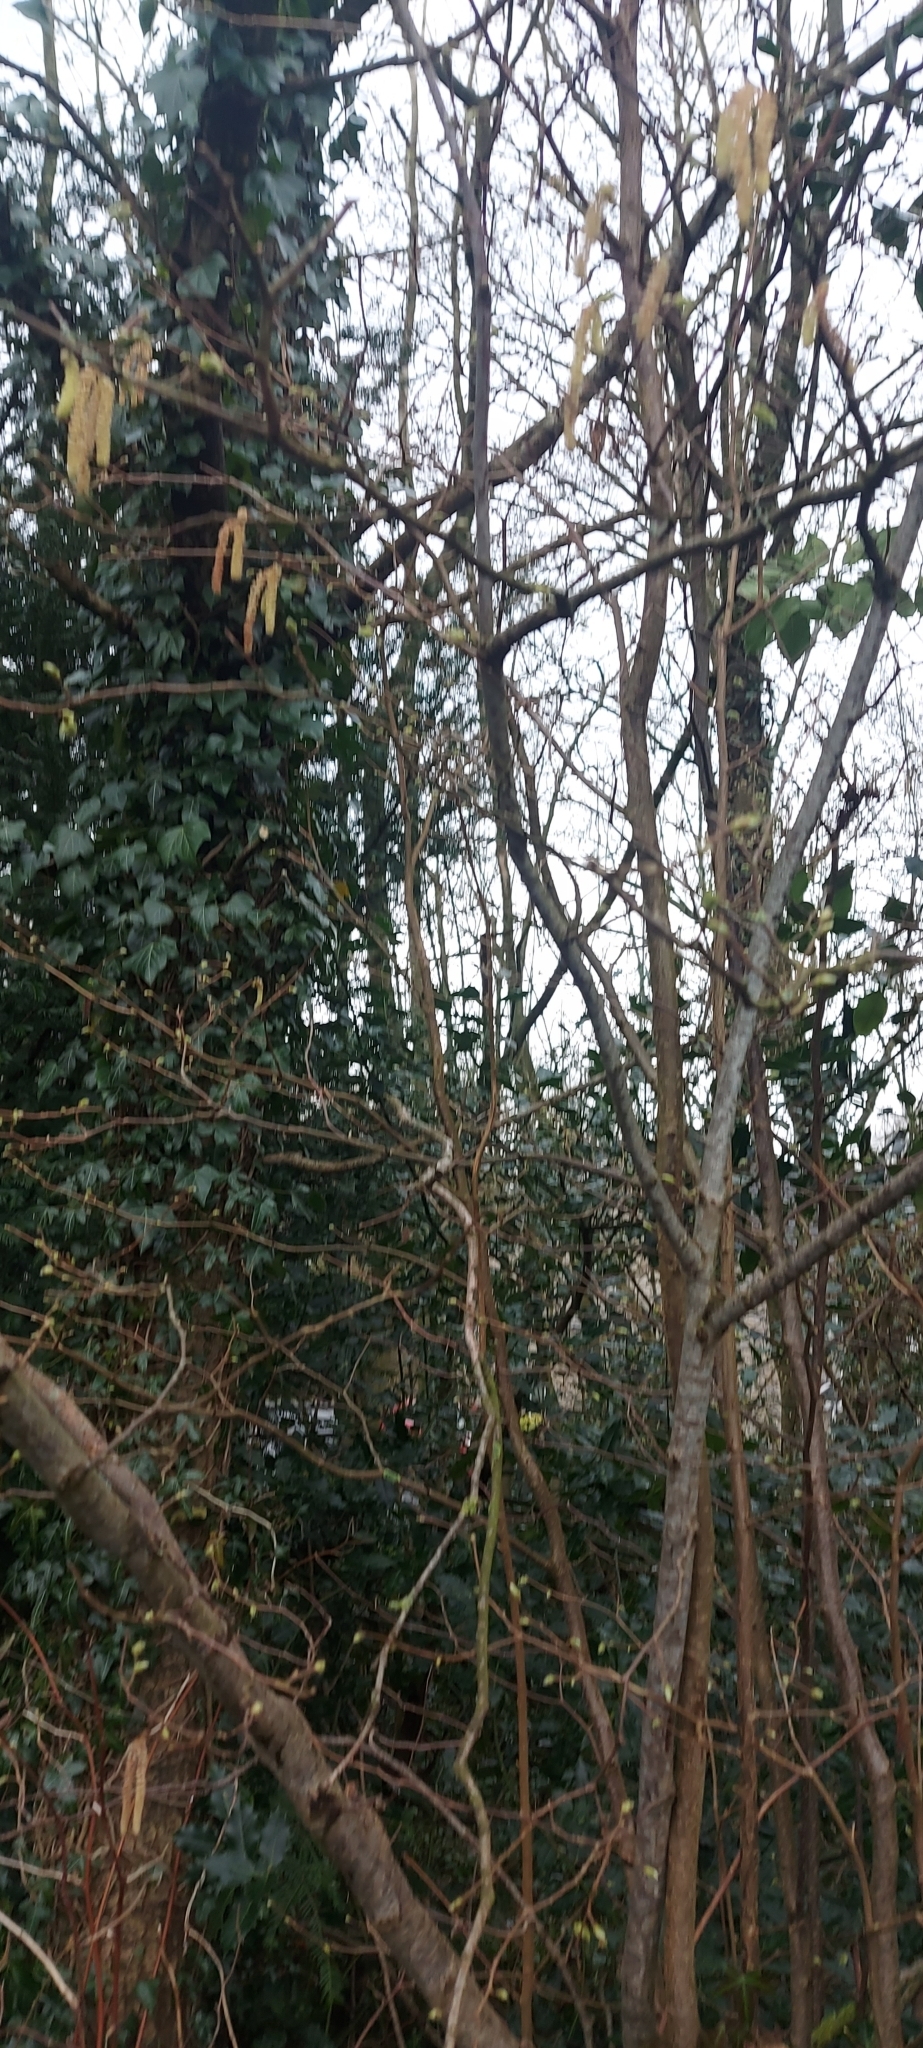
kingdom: Plantae
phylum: Tracheophyta
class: Magnoliopsida
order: Fagales
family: Betulaceae
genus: Corylus
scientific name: Corylus avellana
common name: European hazel
